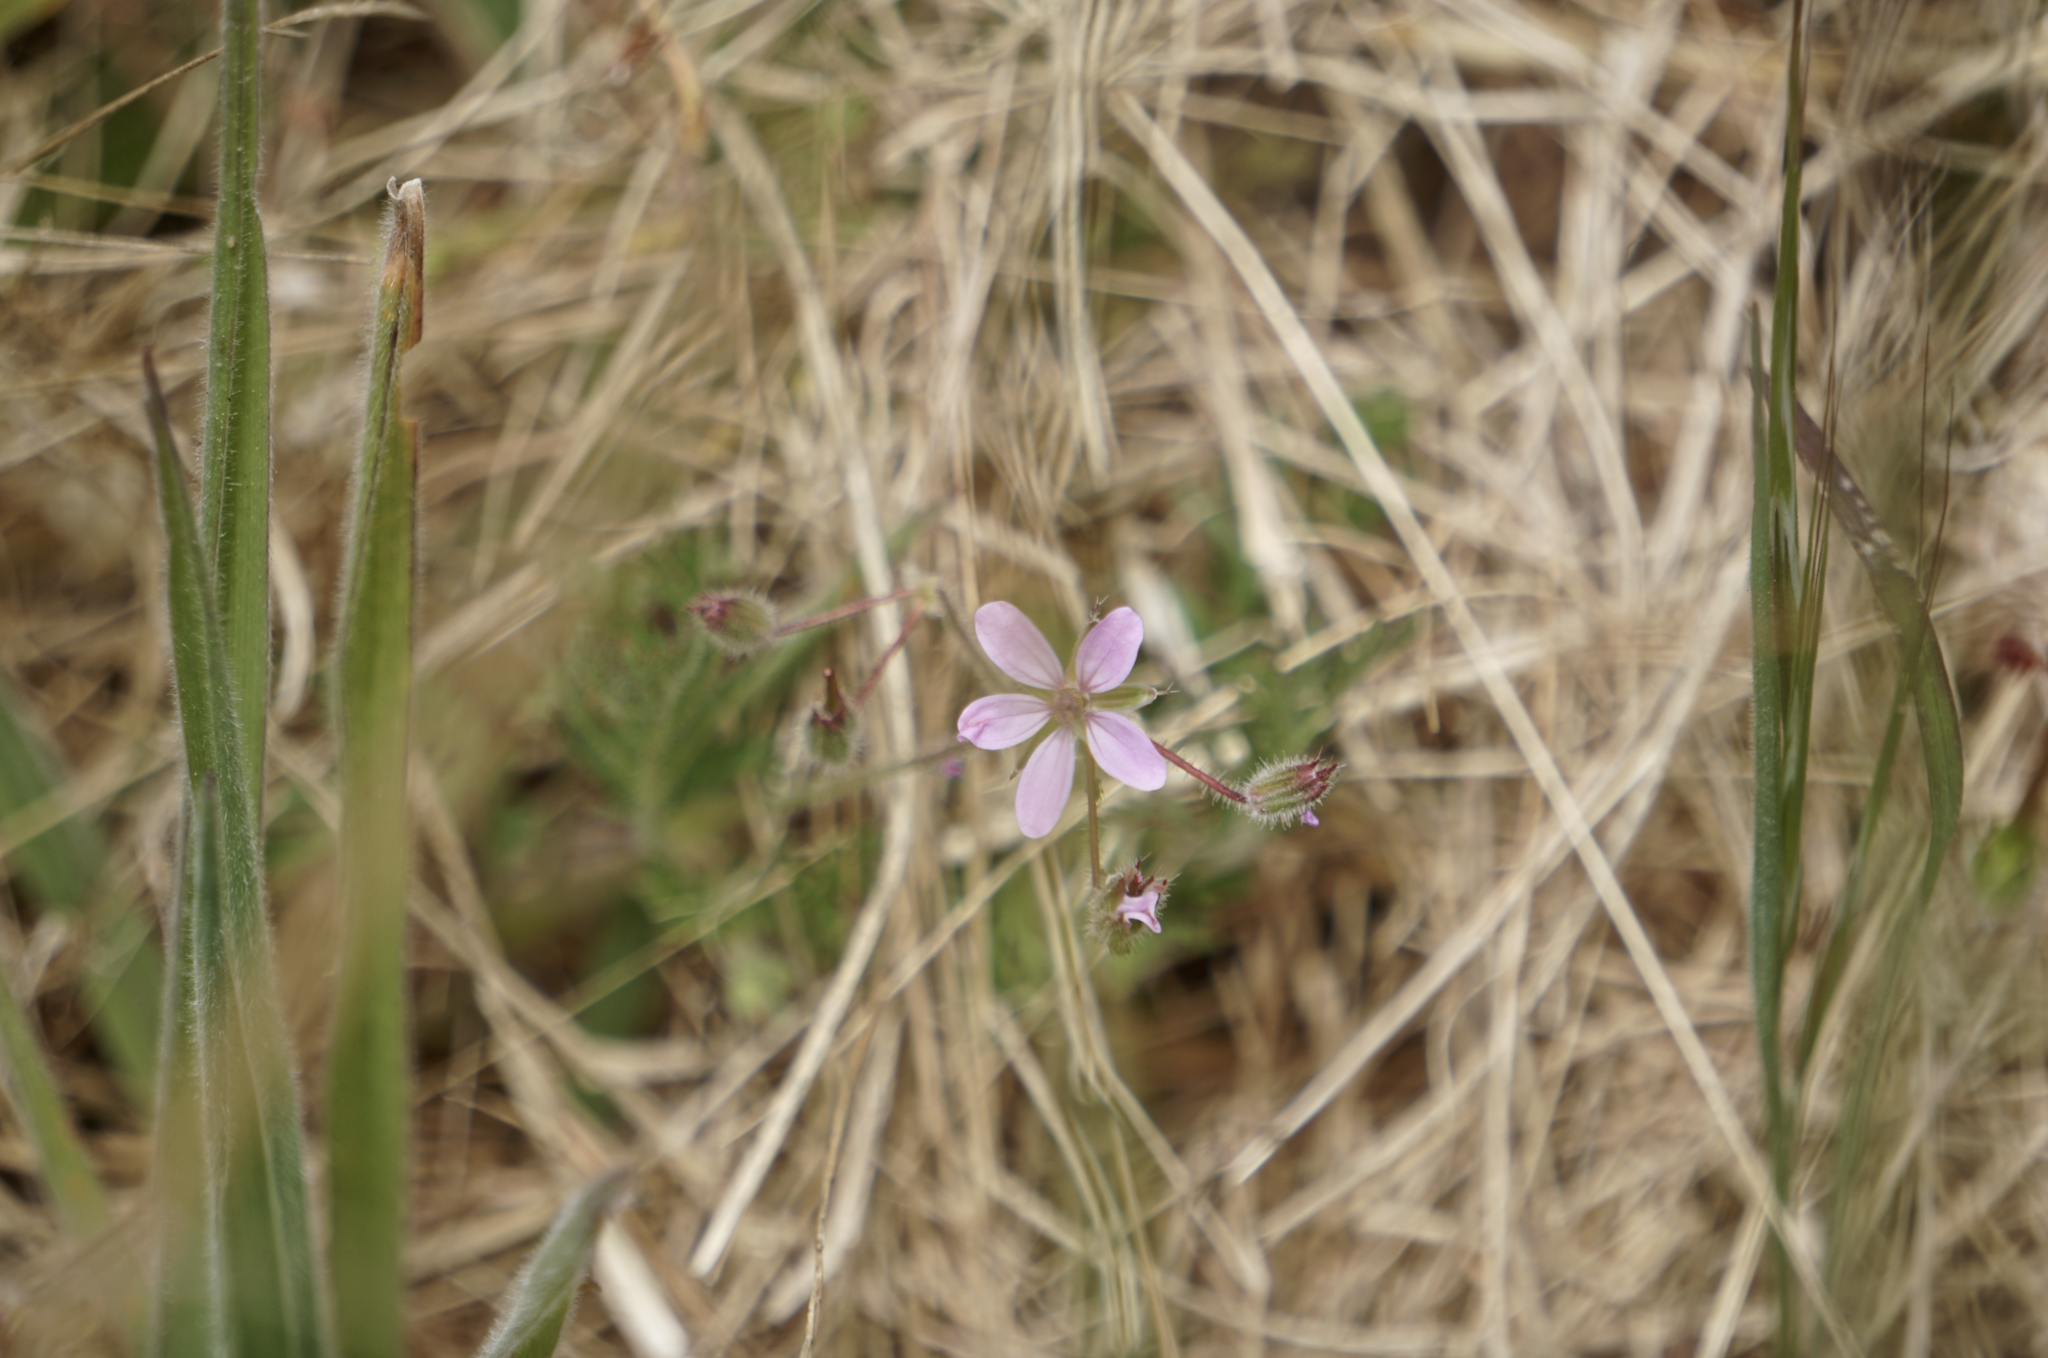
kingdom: Plantae
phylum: Tracheophyta
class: Magnoliopsida
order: Geraniales
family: Geraniaceae
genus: Erodium
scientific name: Erodium cicutarium
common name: Common stork's-bill
